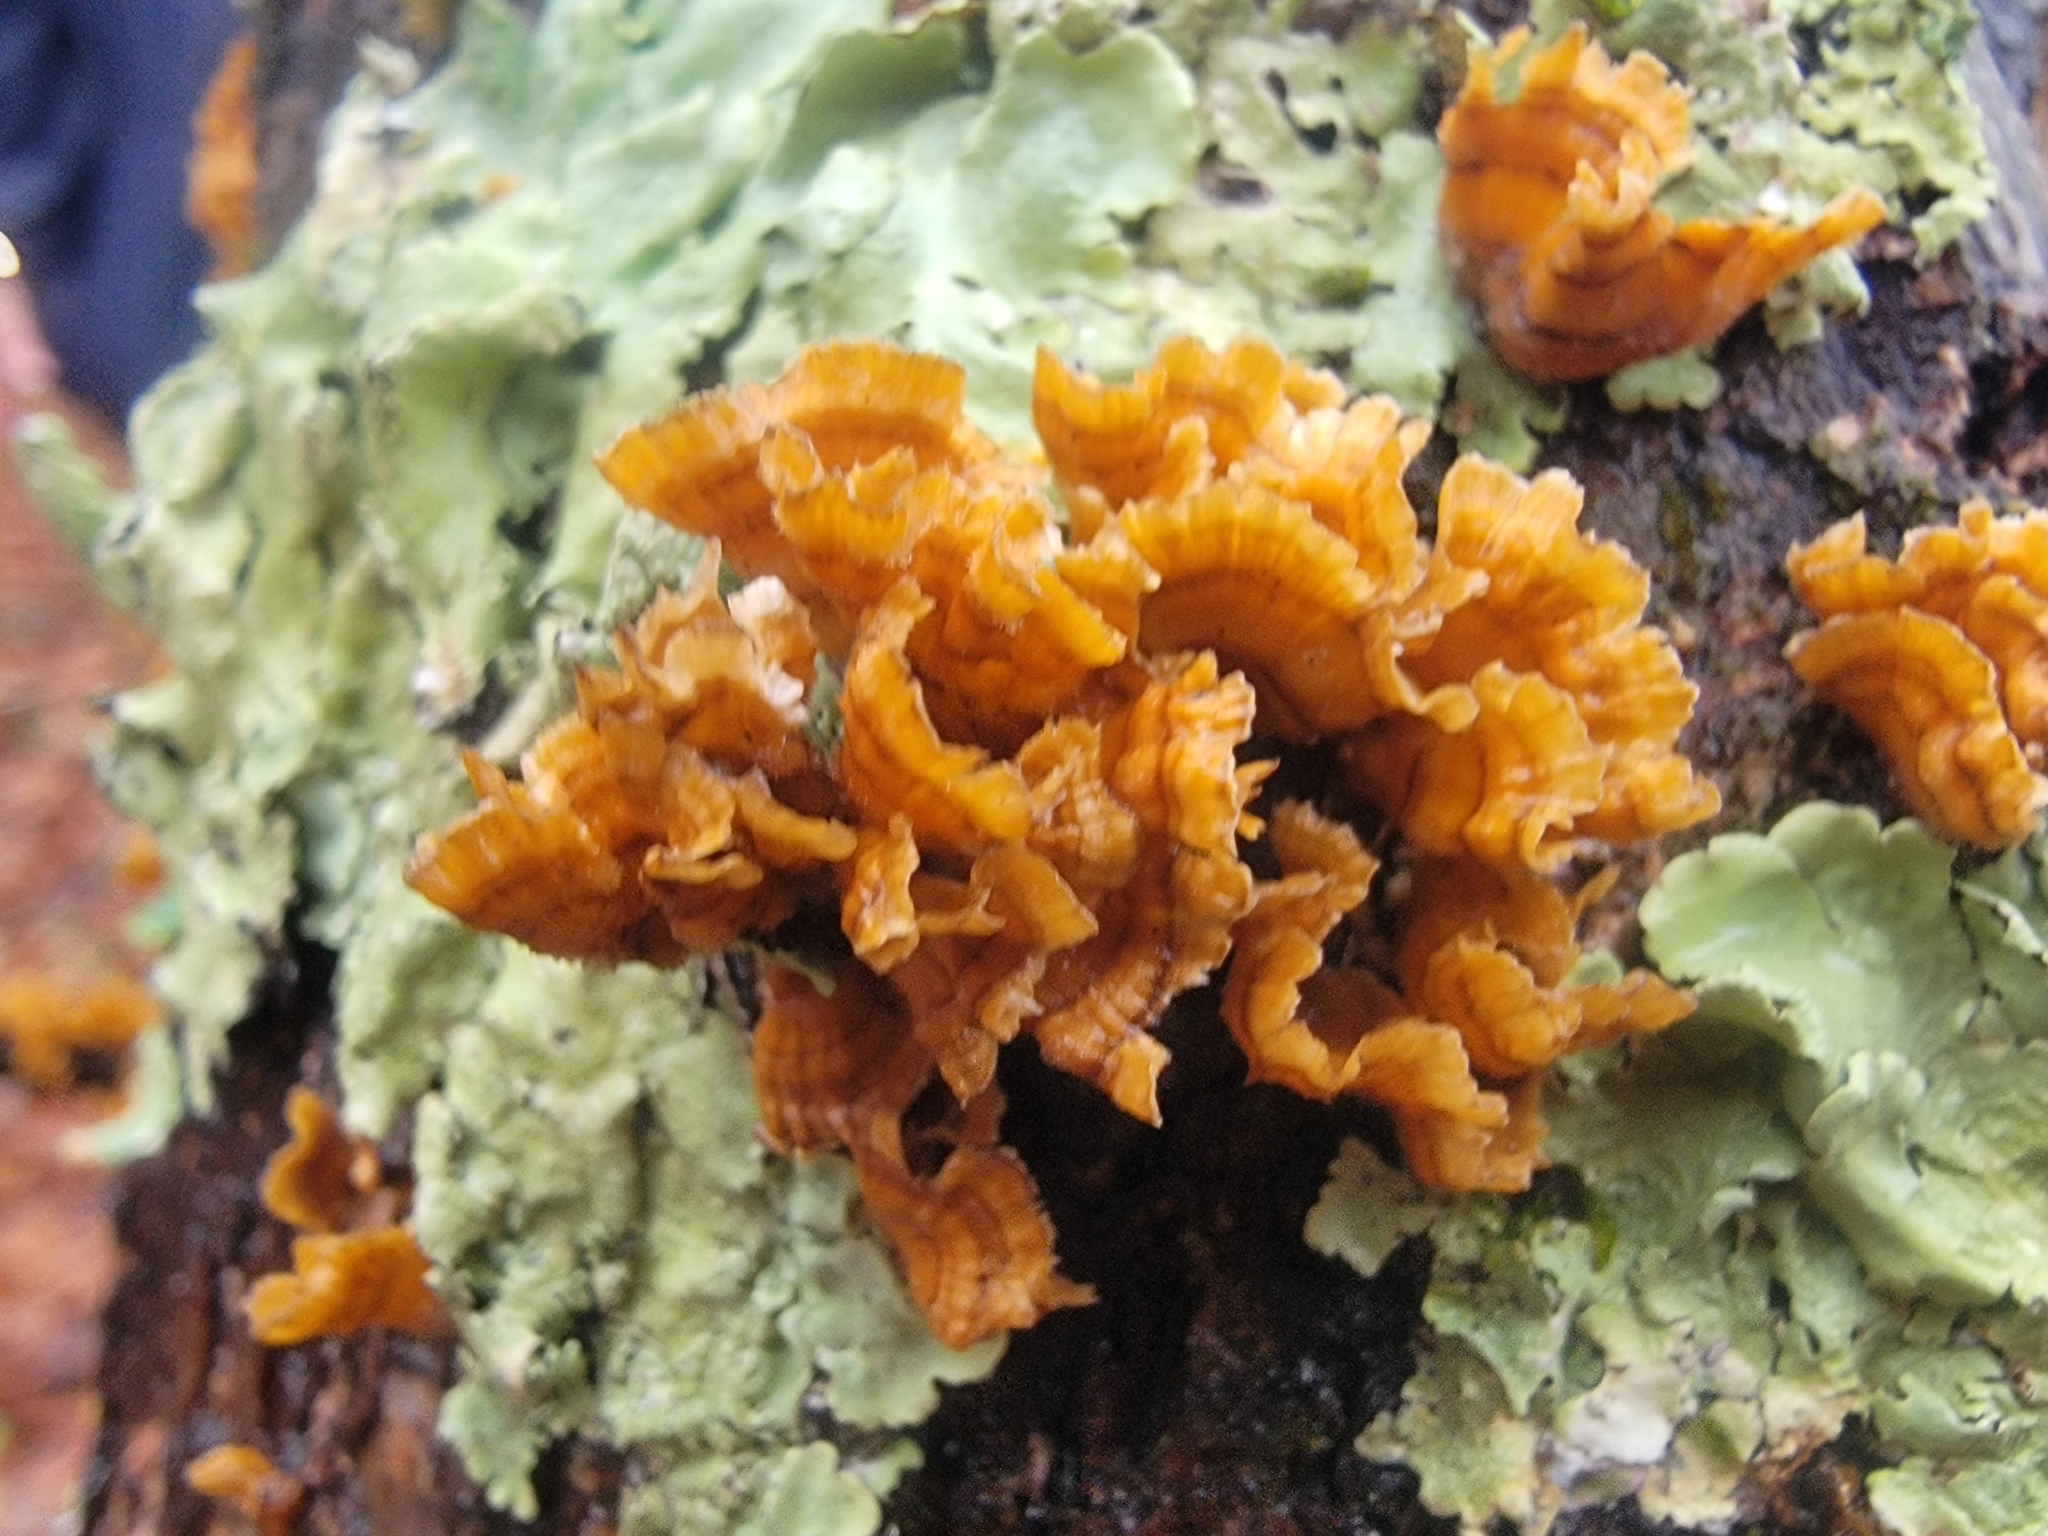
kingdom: Fungi
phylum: Basidiomycota
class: Agaricomycetes
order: Russulales
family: Stereaceae
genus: Stereum
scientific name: Stereum complicatum
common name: Crowded parchment
